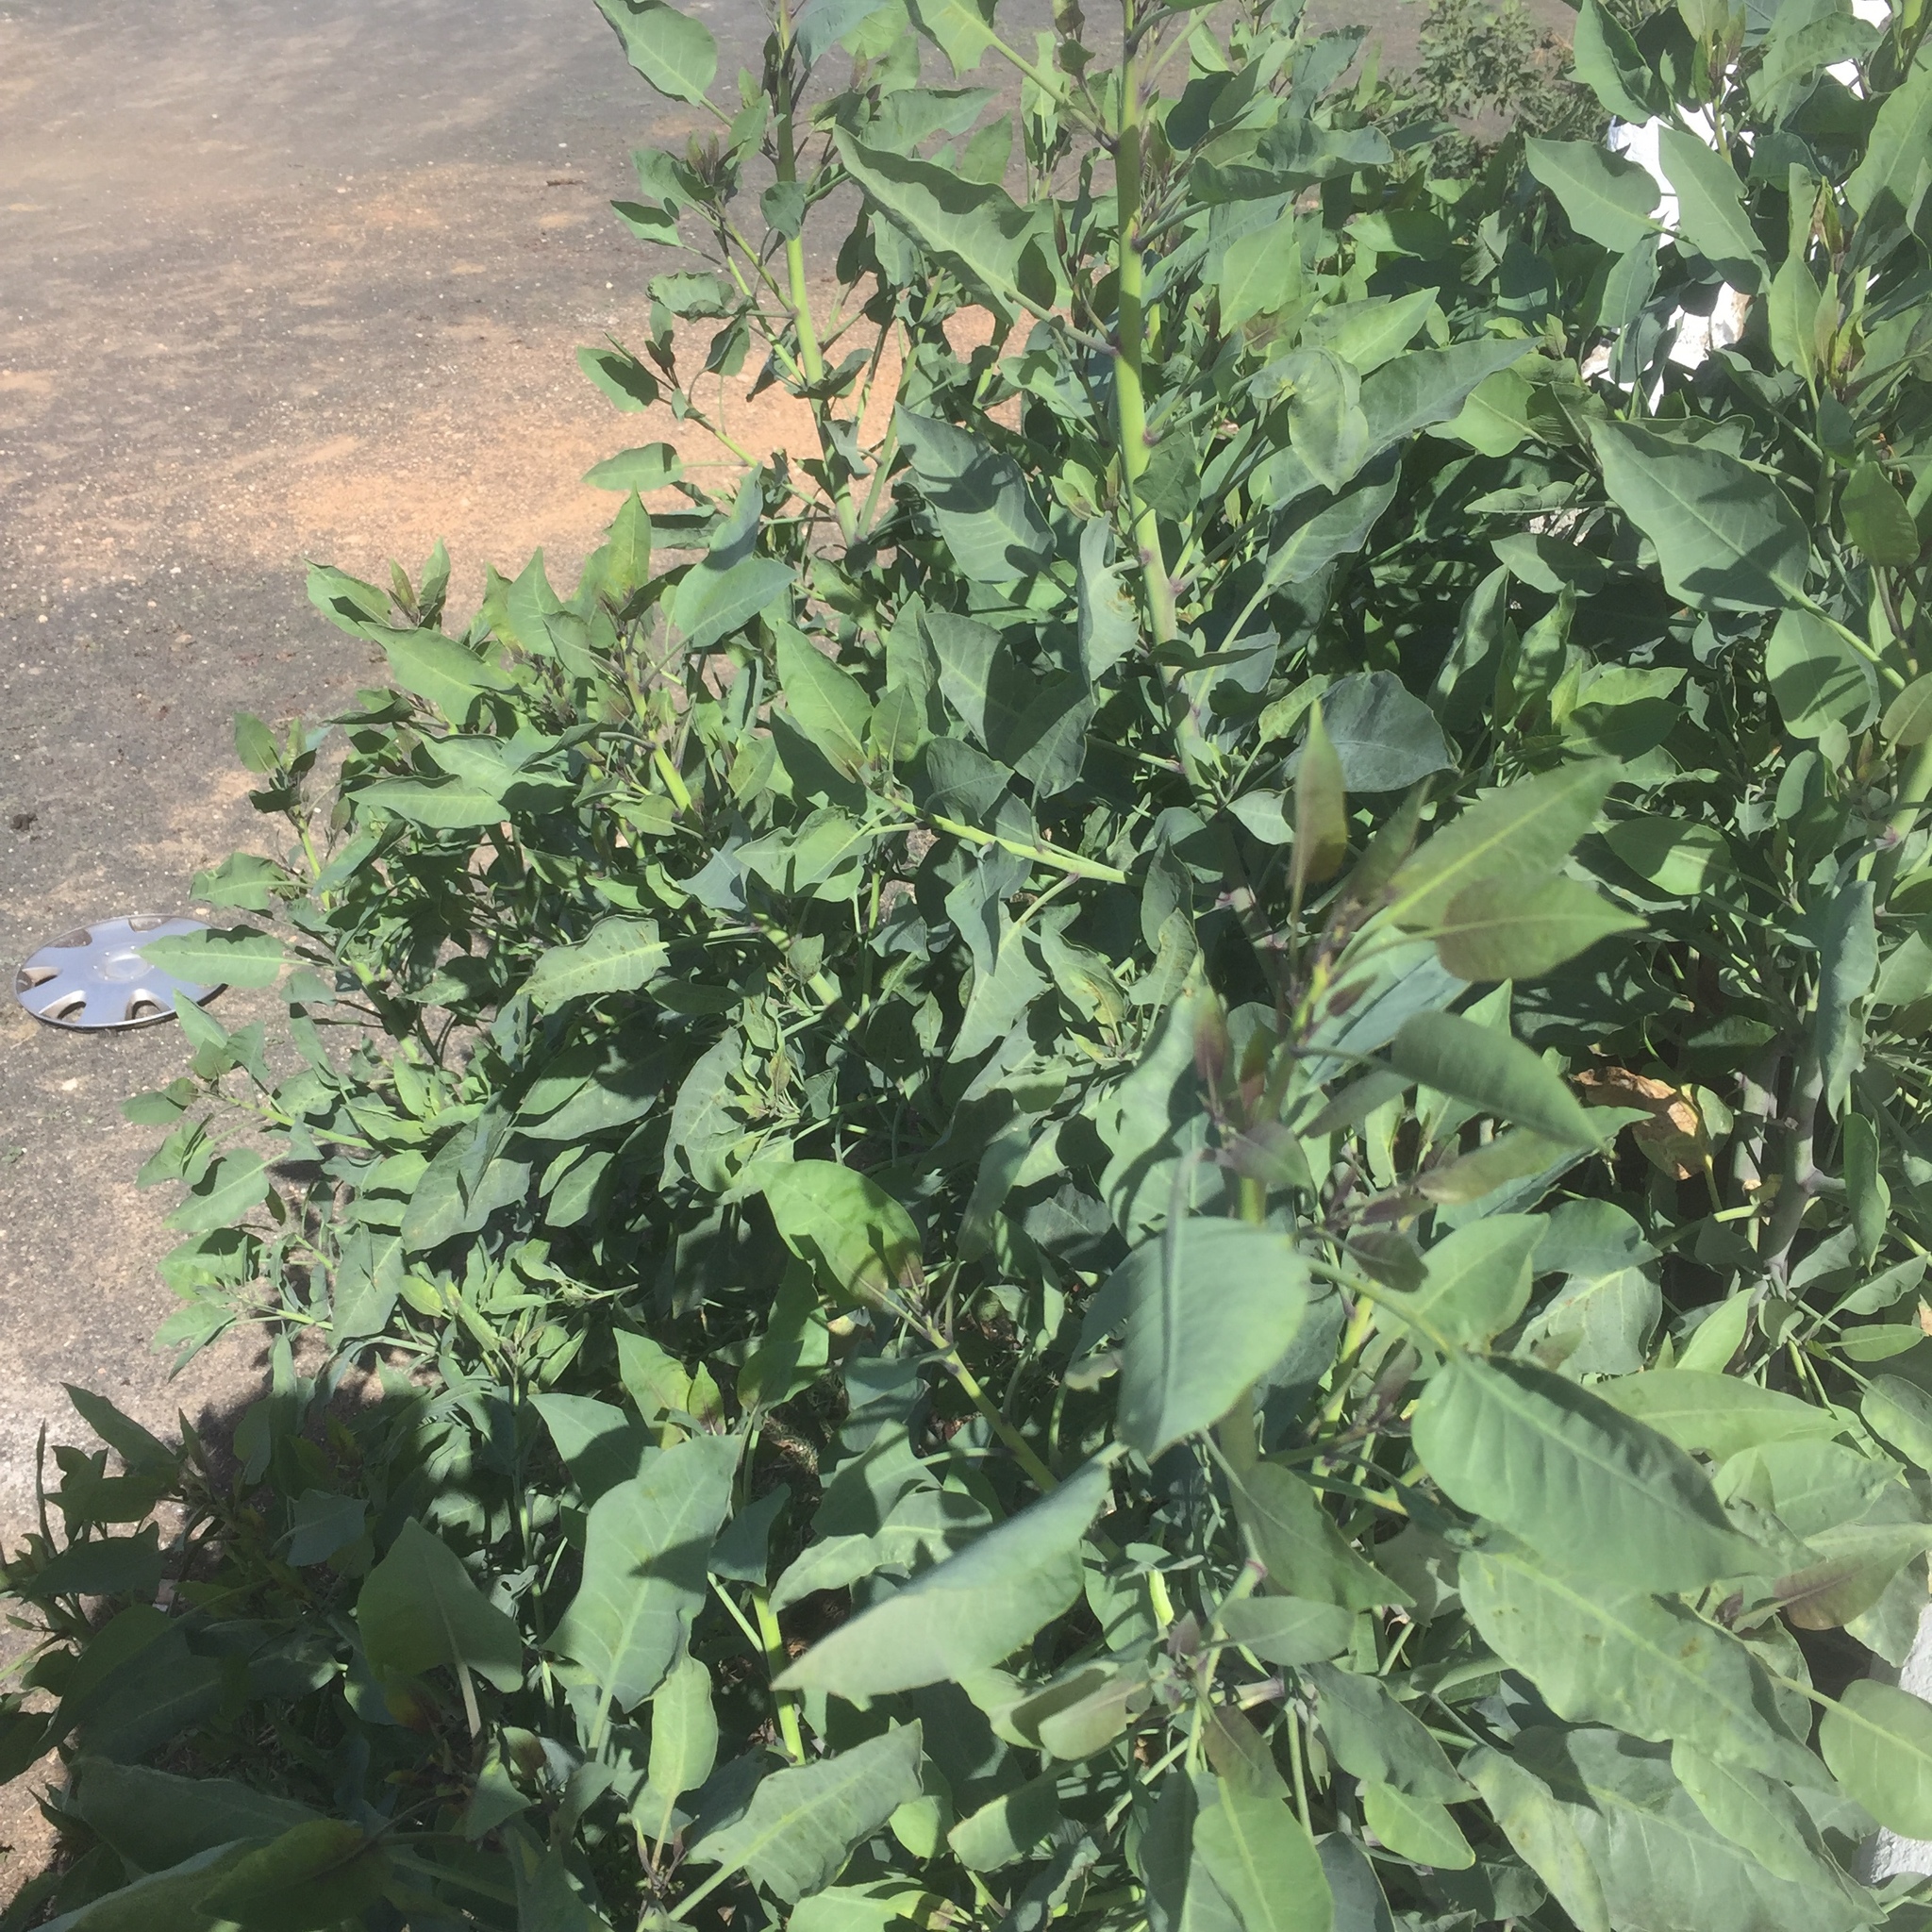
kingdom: Plantae
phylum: Tracheophyta
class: Magnoliopsida
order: Solanales
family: Solanaceae
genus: Nicotiana
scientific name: Nicotiana glauca
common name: Tree tobacco
